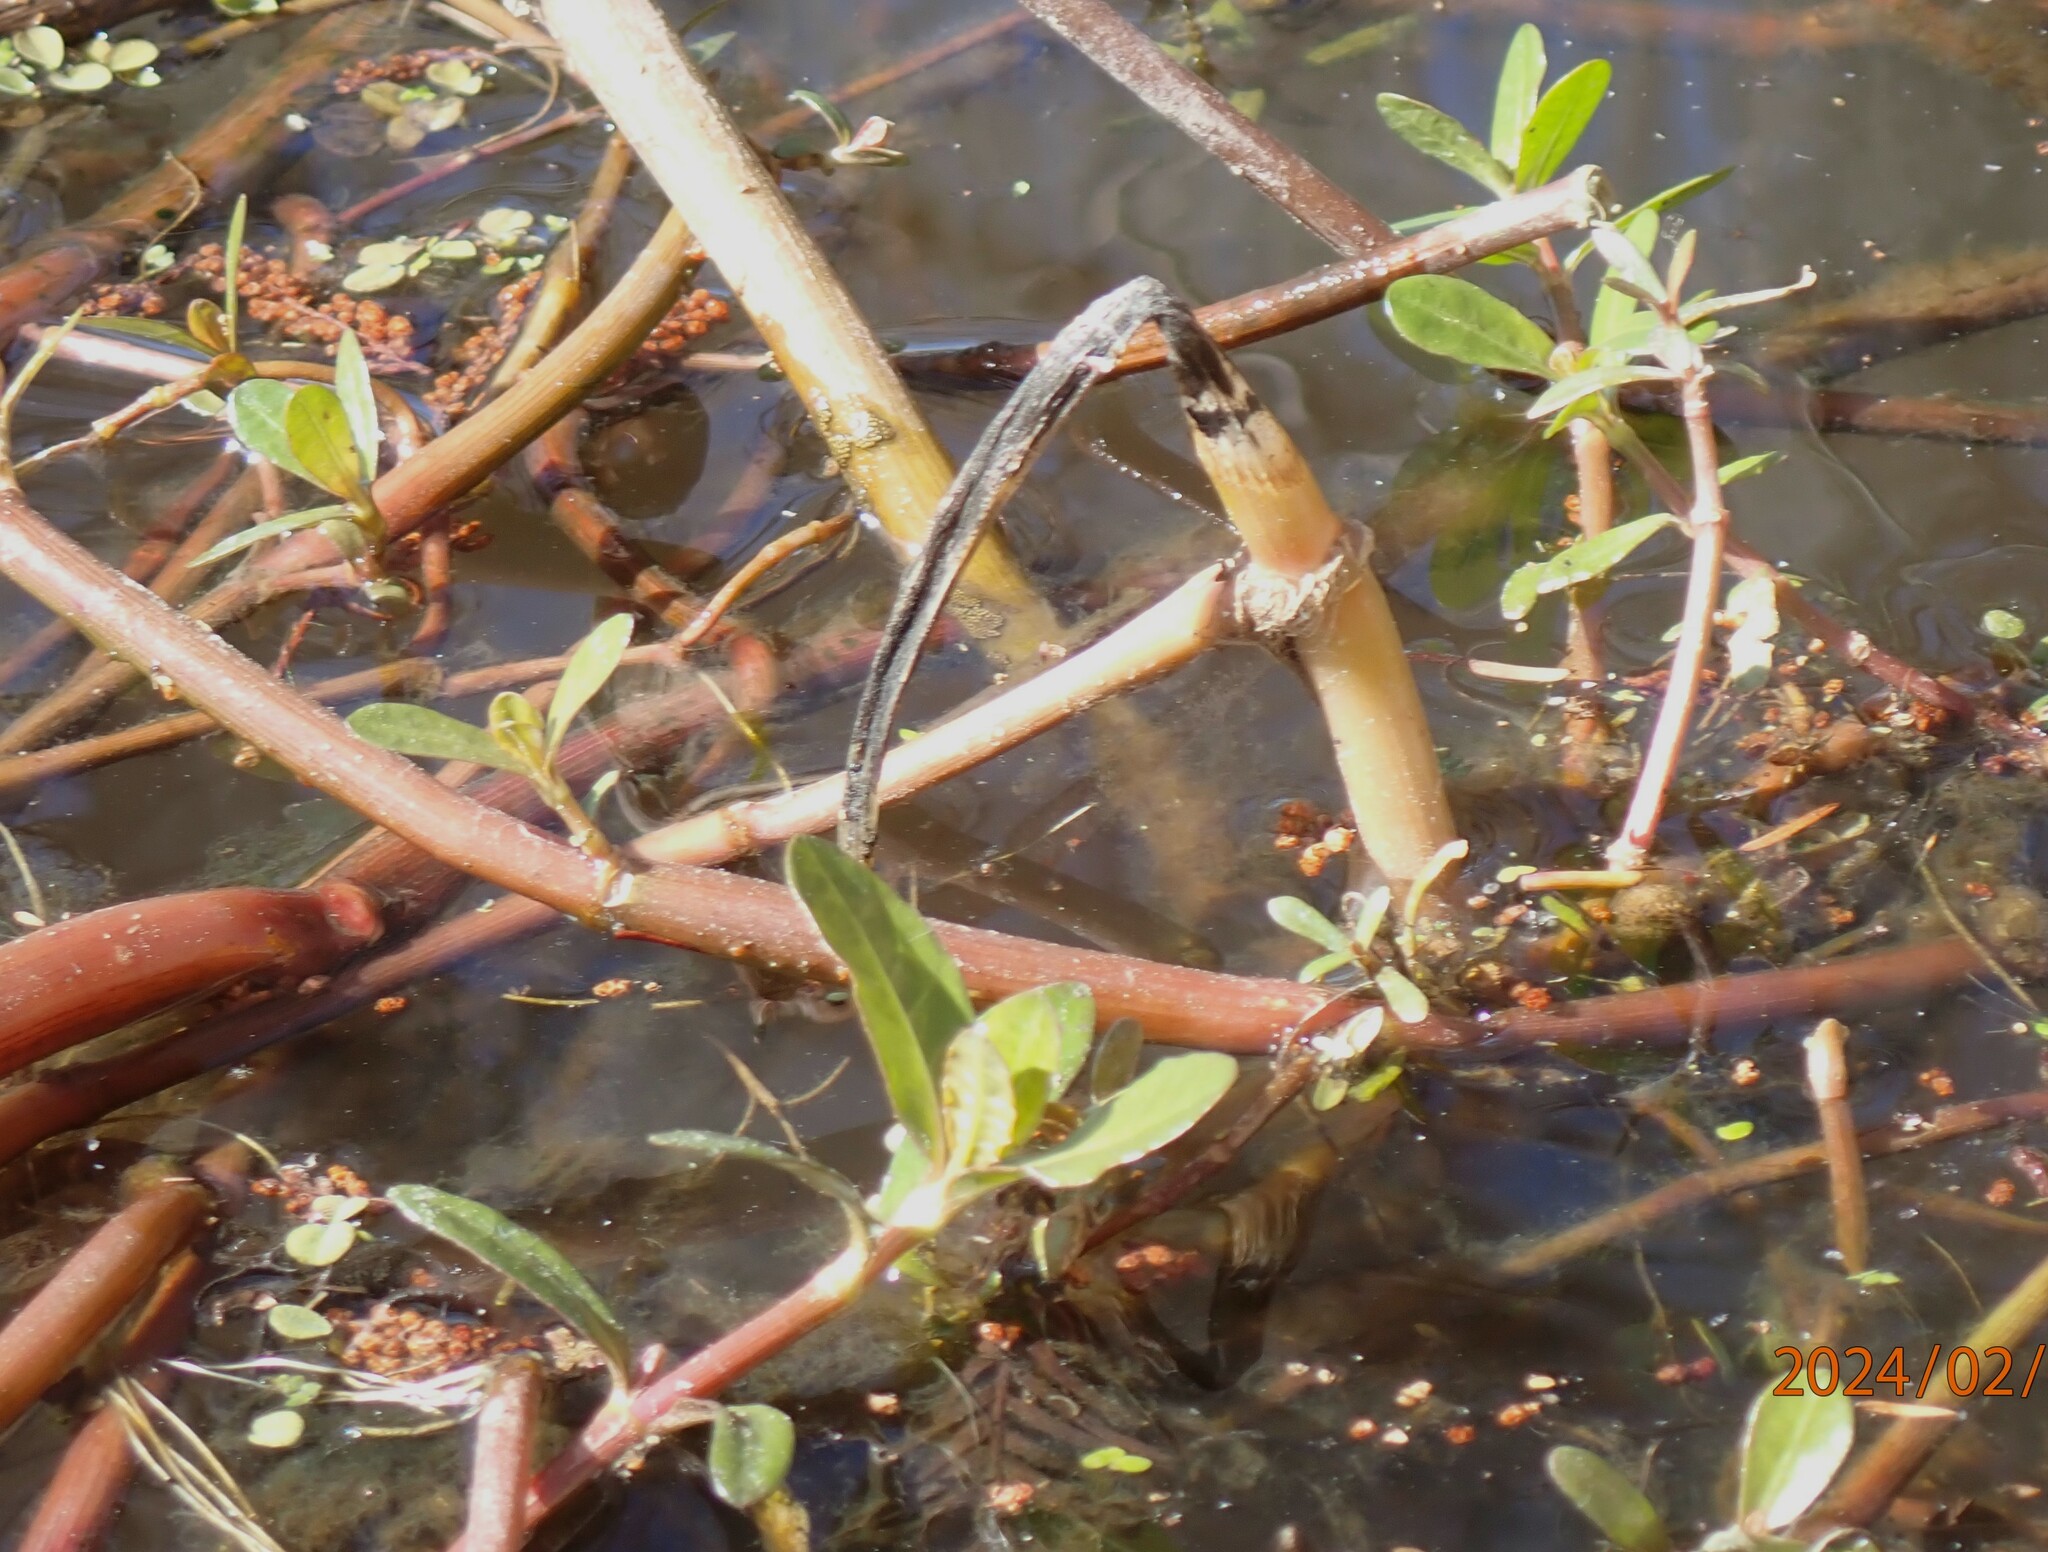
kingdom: Plantae
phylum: Tracheophyta
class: Magnoliopsida
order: Caryophyllales
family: Amaranthaceae
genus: Alternanthera
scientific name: Alternanthera philoxeroides
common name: Alligatorweed
